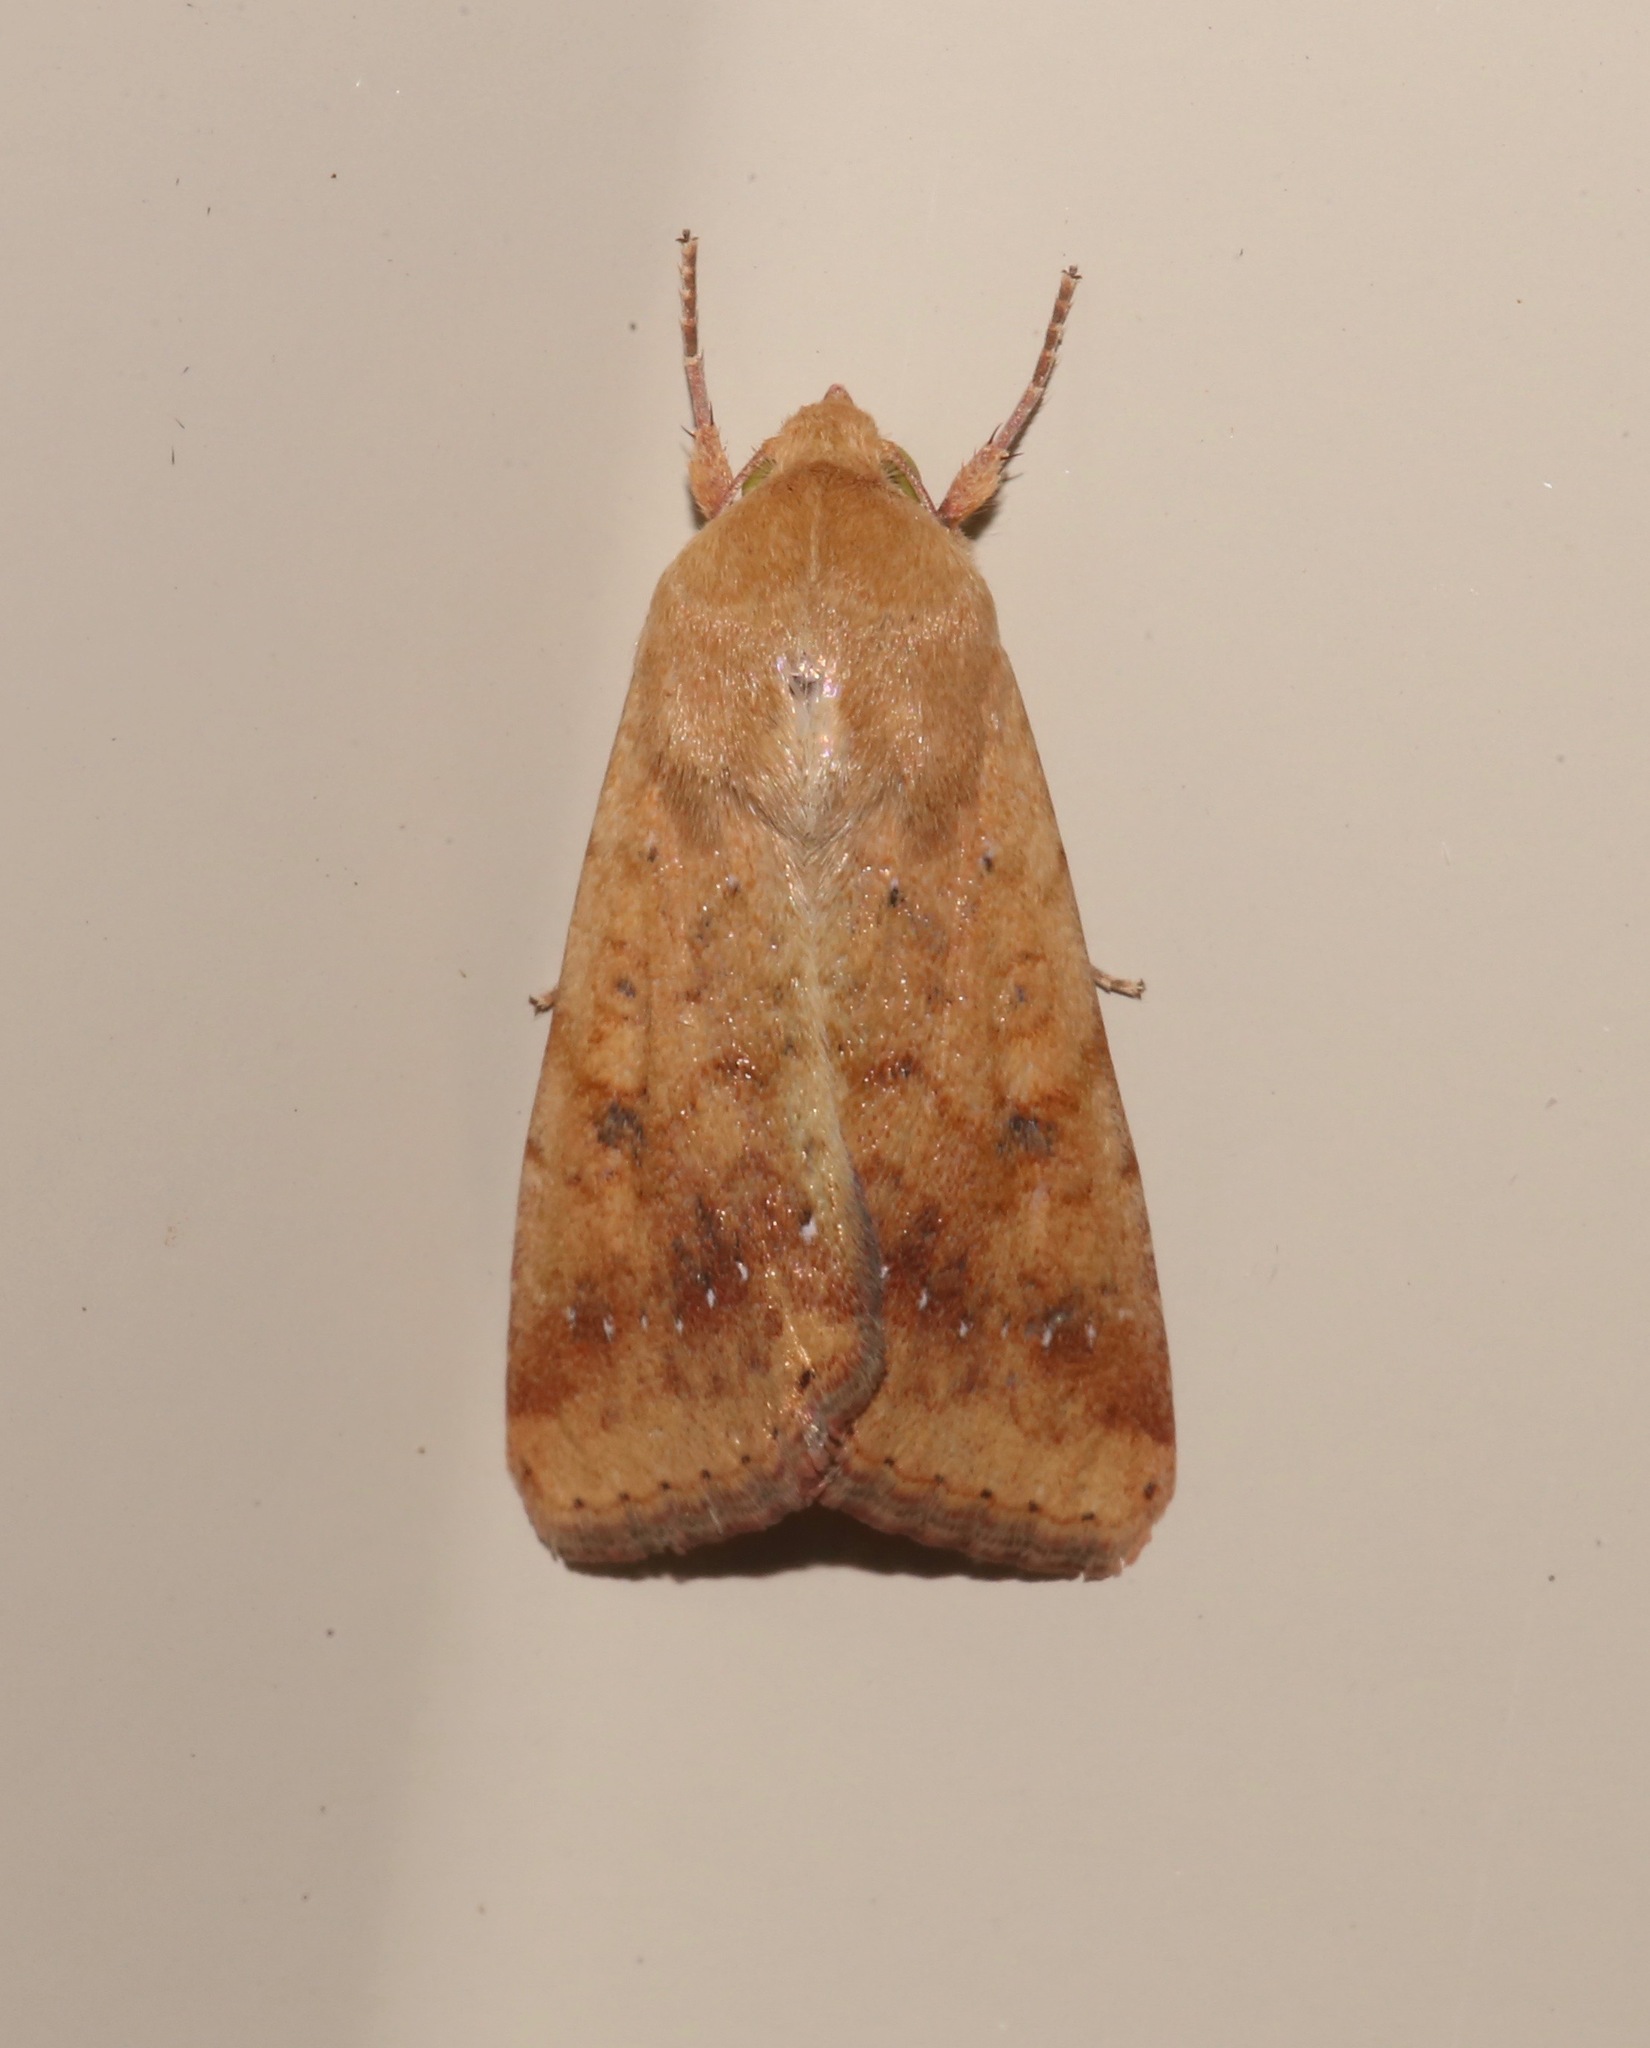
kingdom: Animalia
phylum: Arthropoda
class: Insecta
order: Lepidoptera
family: Noctuidae
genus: Helicoverpa
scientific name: Helicoverpa zea
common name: Bollworm
